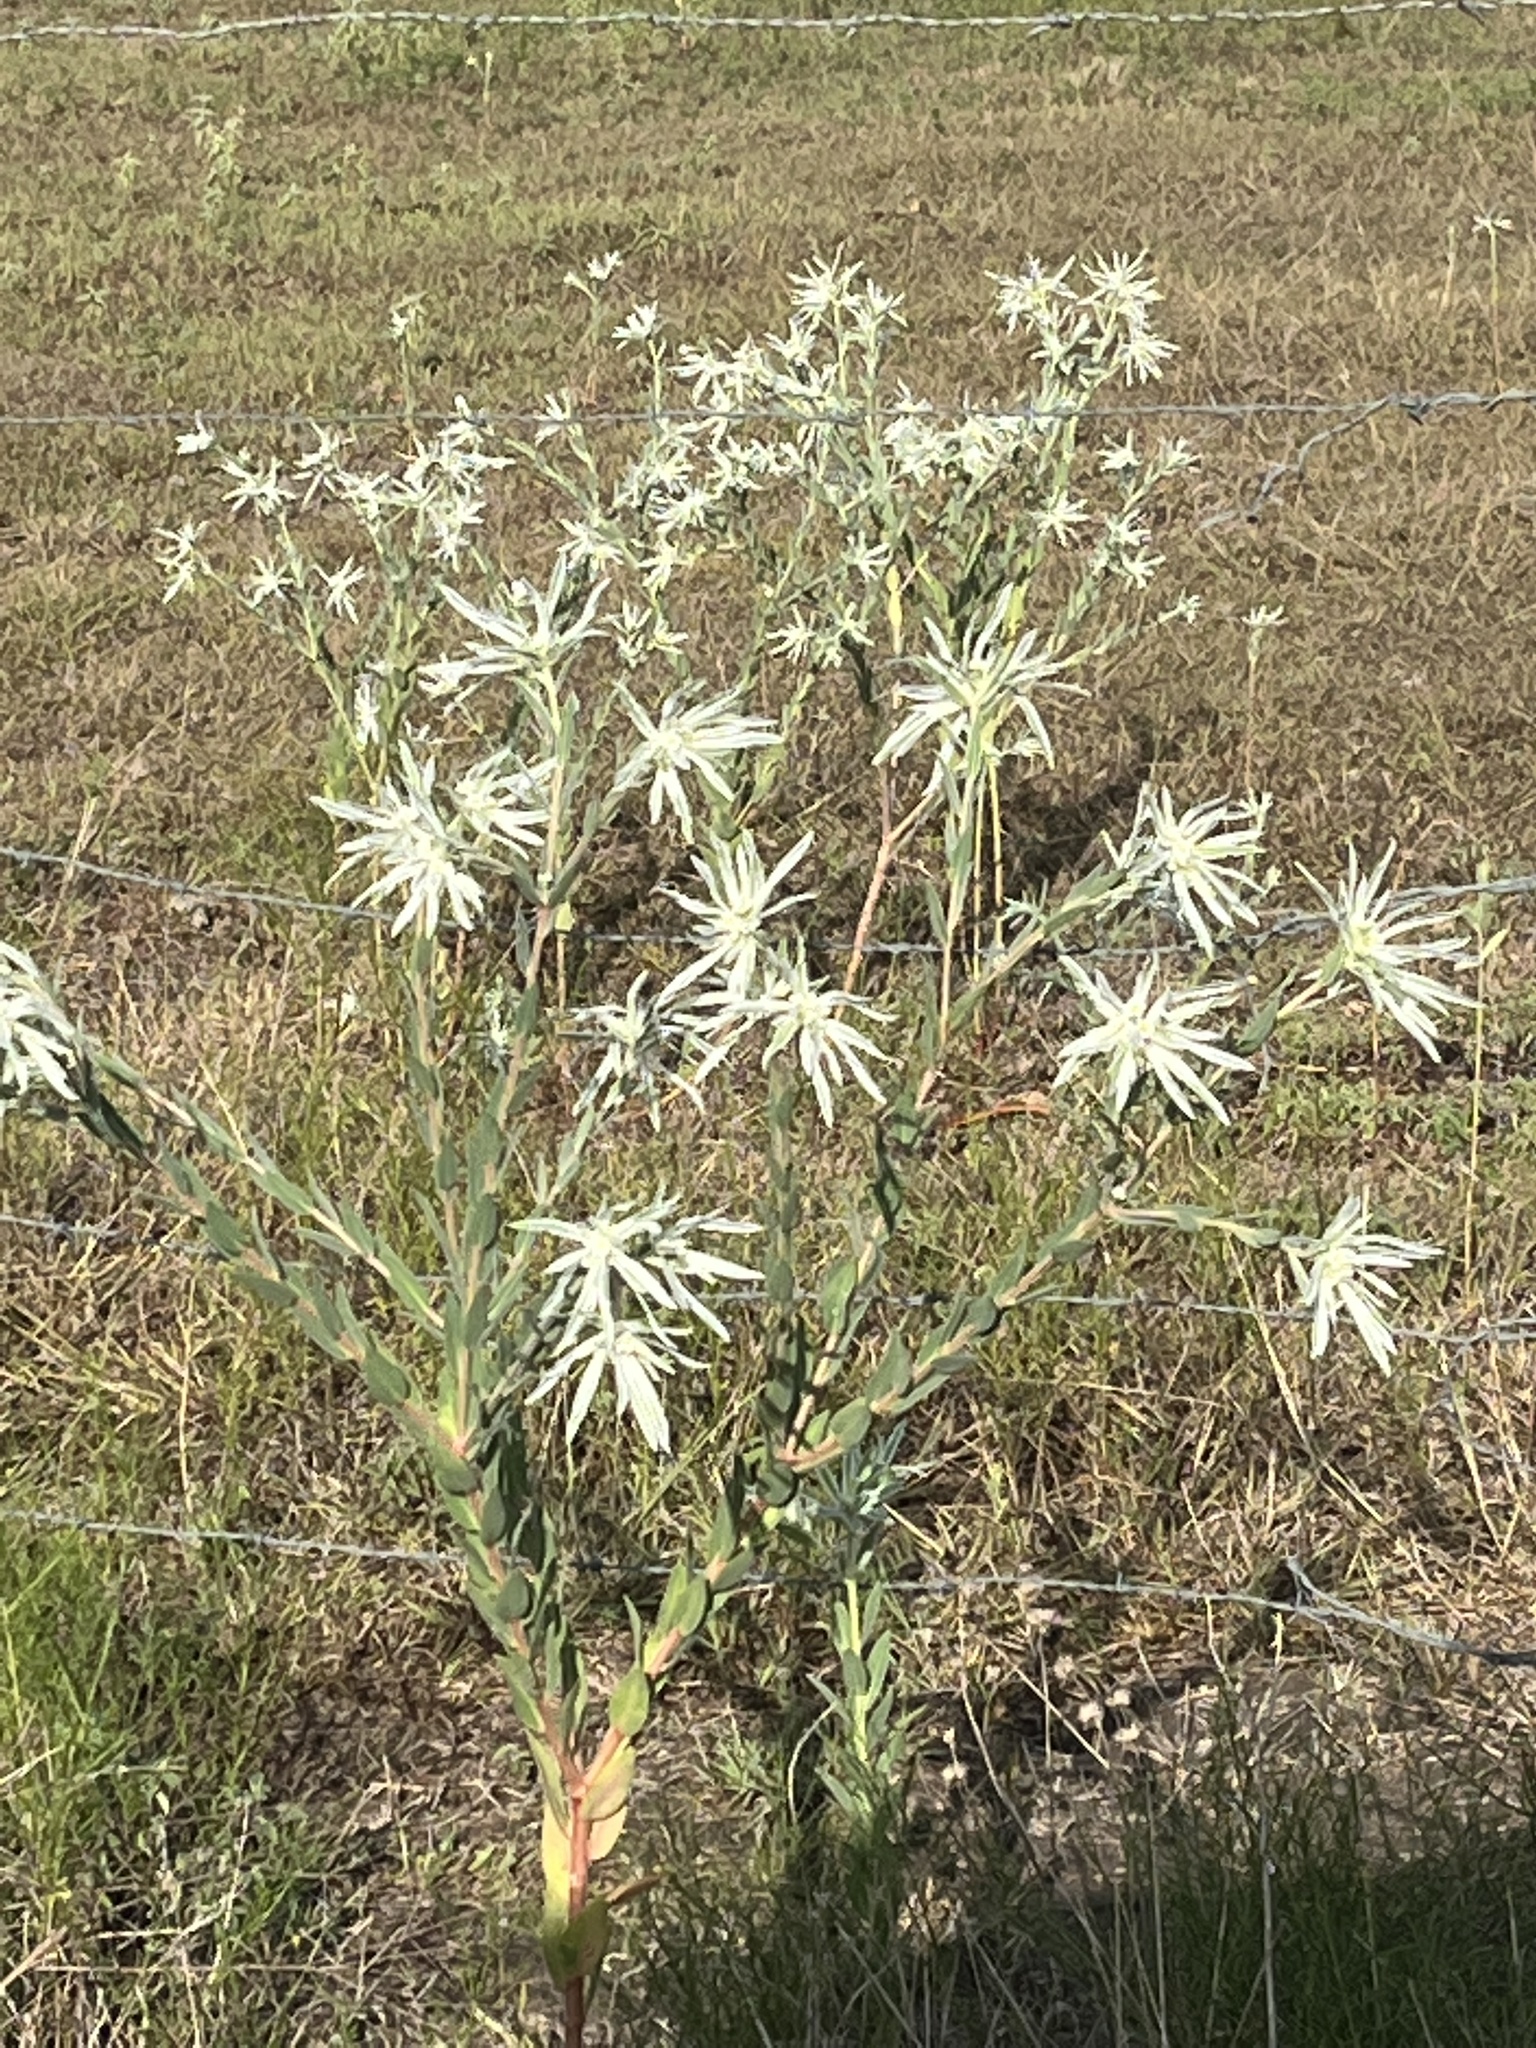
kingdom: Plantae
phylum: Tracheophyta
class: Magnoliopsida
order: Malpighiales
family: Euphorbiaceae
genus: Euphorbia
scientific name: Euphorbia bicolor
